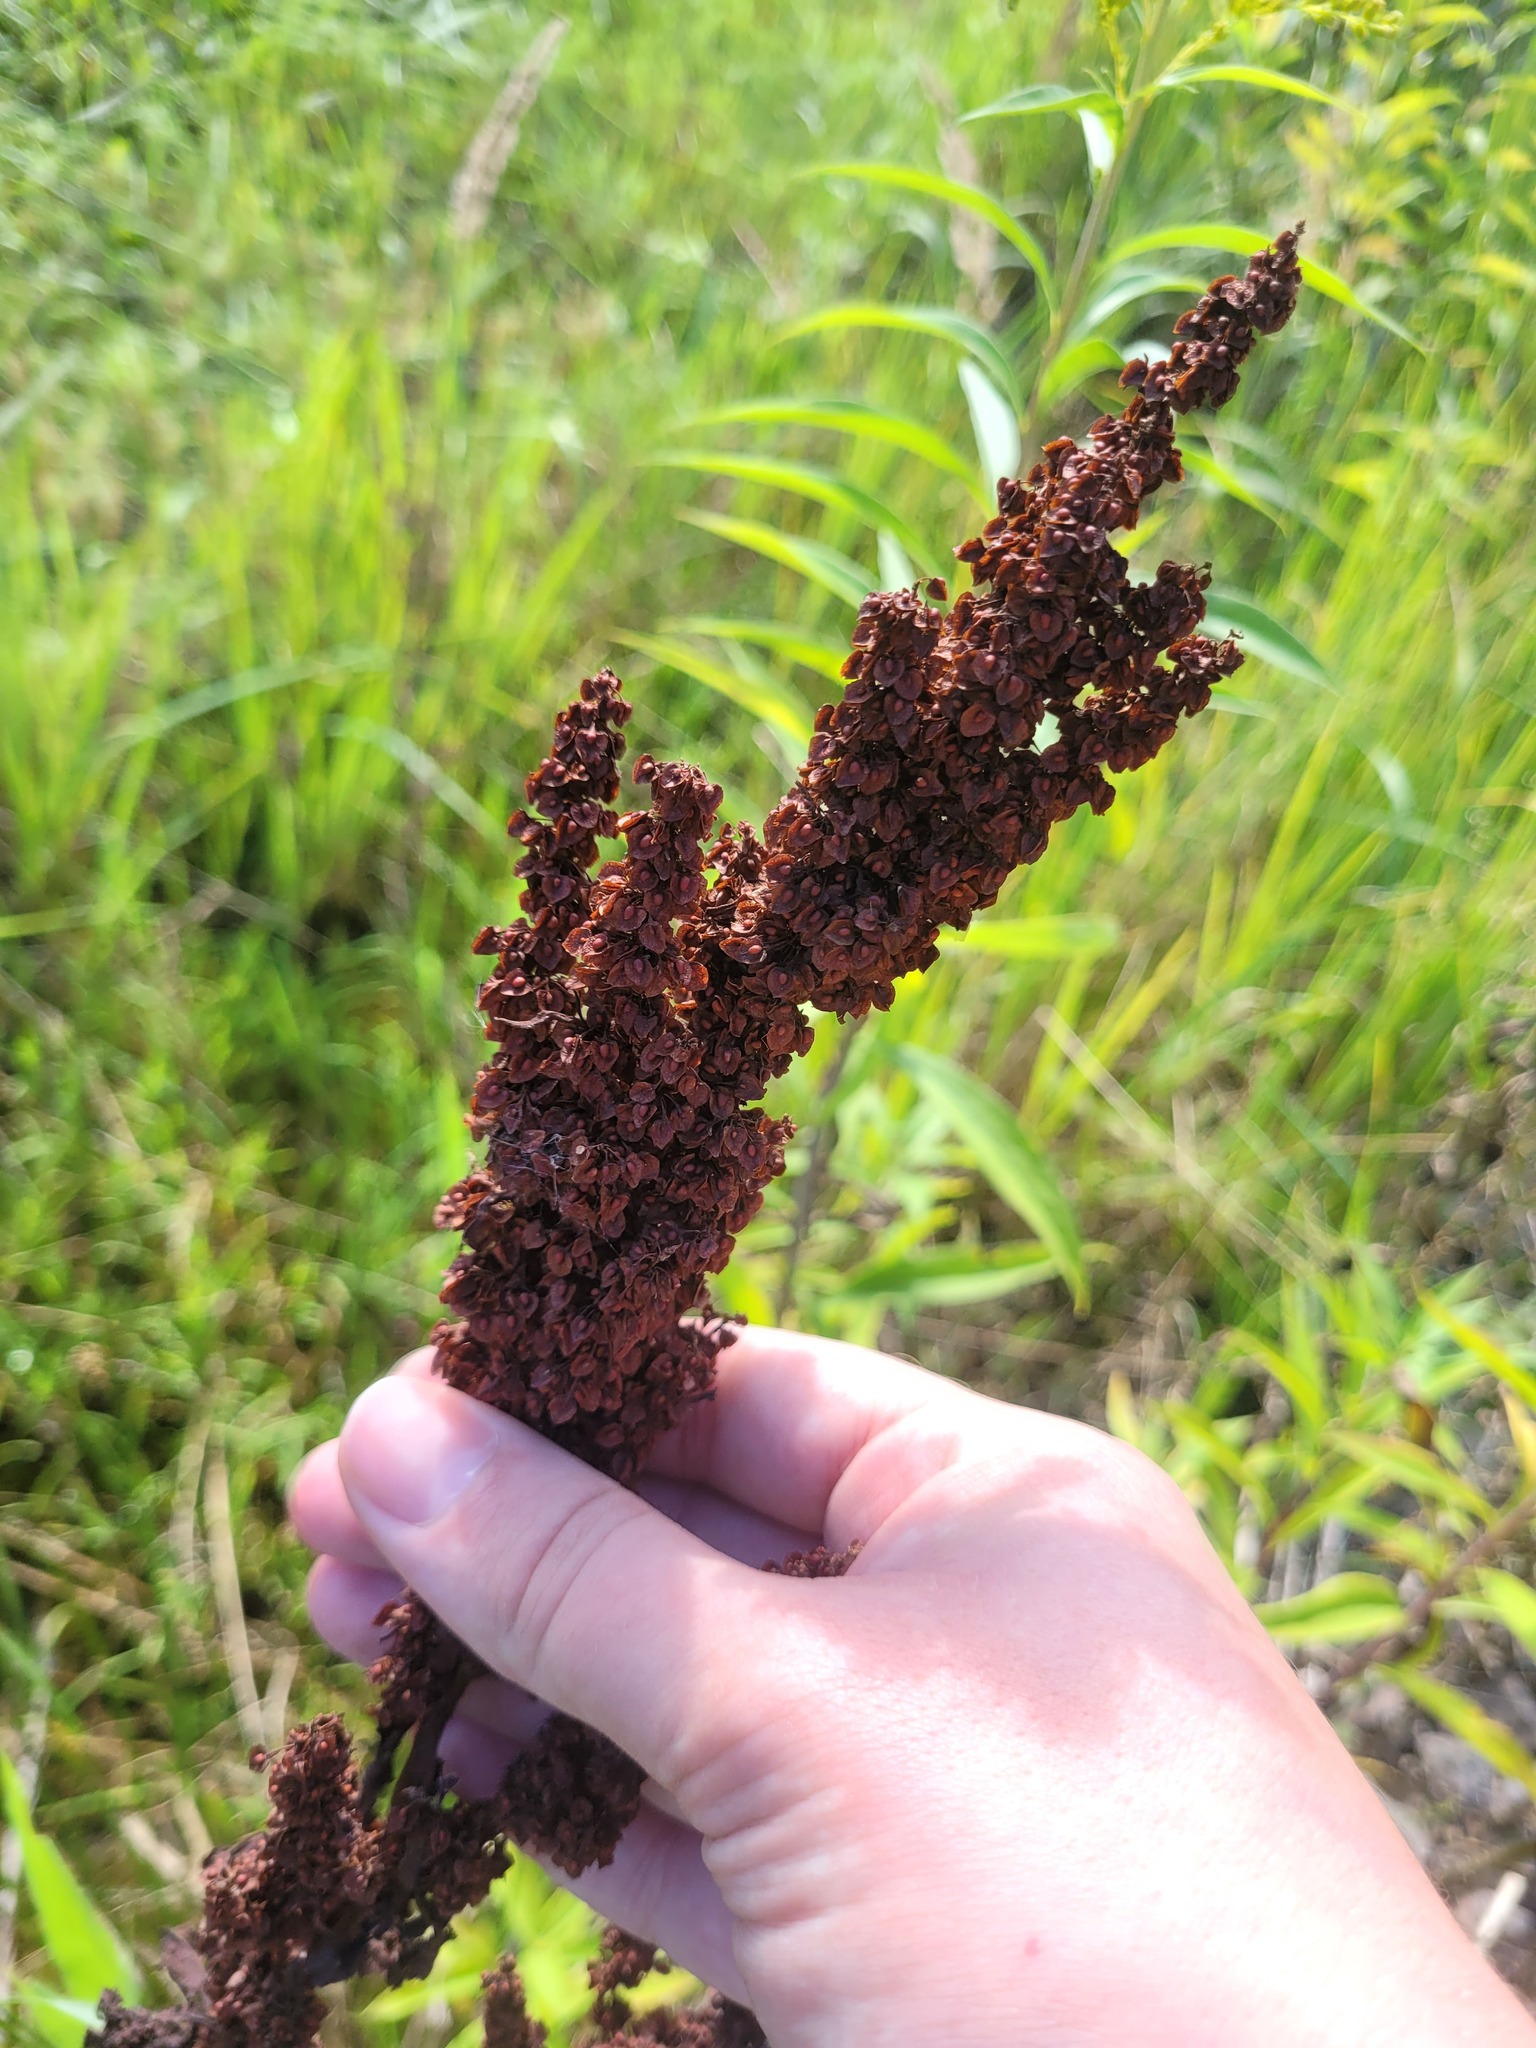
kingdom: Plantae
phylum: Tracheophyta
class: Magnoliopsida
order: Caryophyllales
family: Polygonaceae
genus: Rumex
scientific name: Rumex crispus
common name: Curled dock
